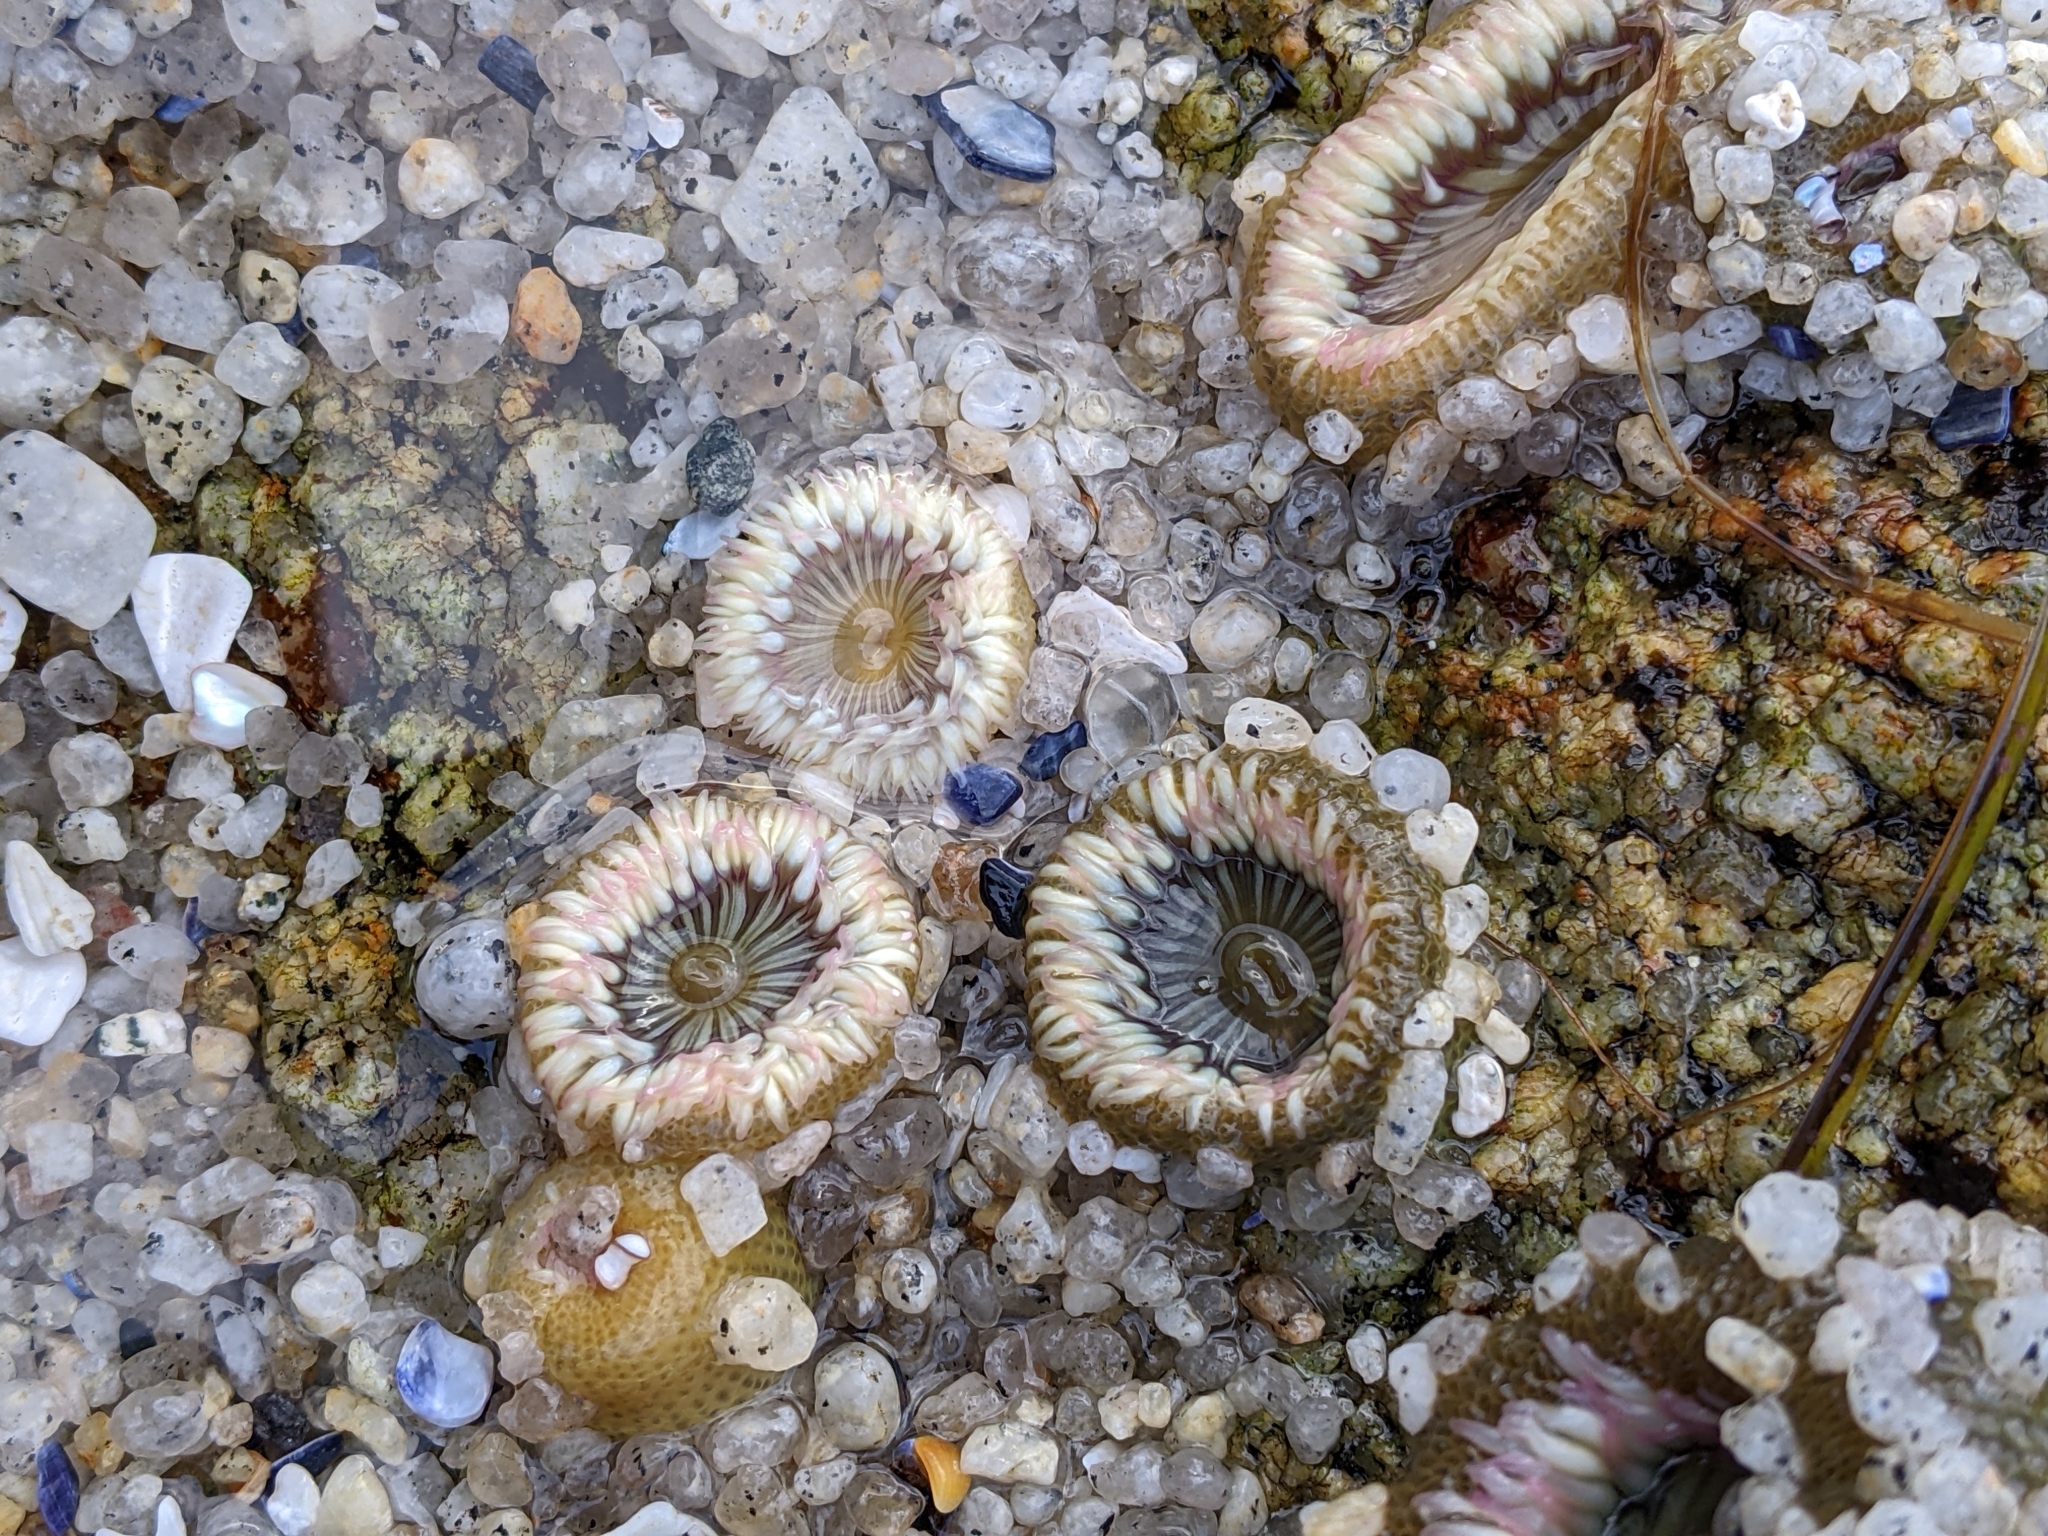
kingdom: Animalia
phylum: Cnidaria
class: Anthozoa
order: Actiniaria
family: Actiniidae
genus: Anthopleura
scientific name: Anthopleura elegantissima
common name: Clonal anemone
